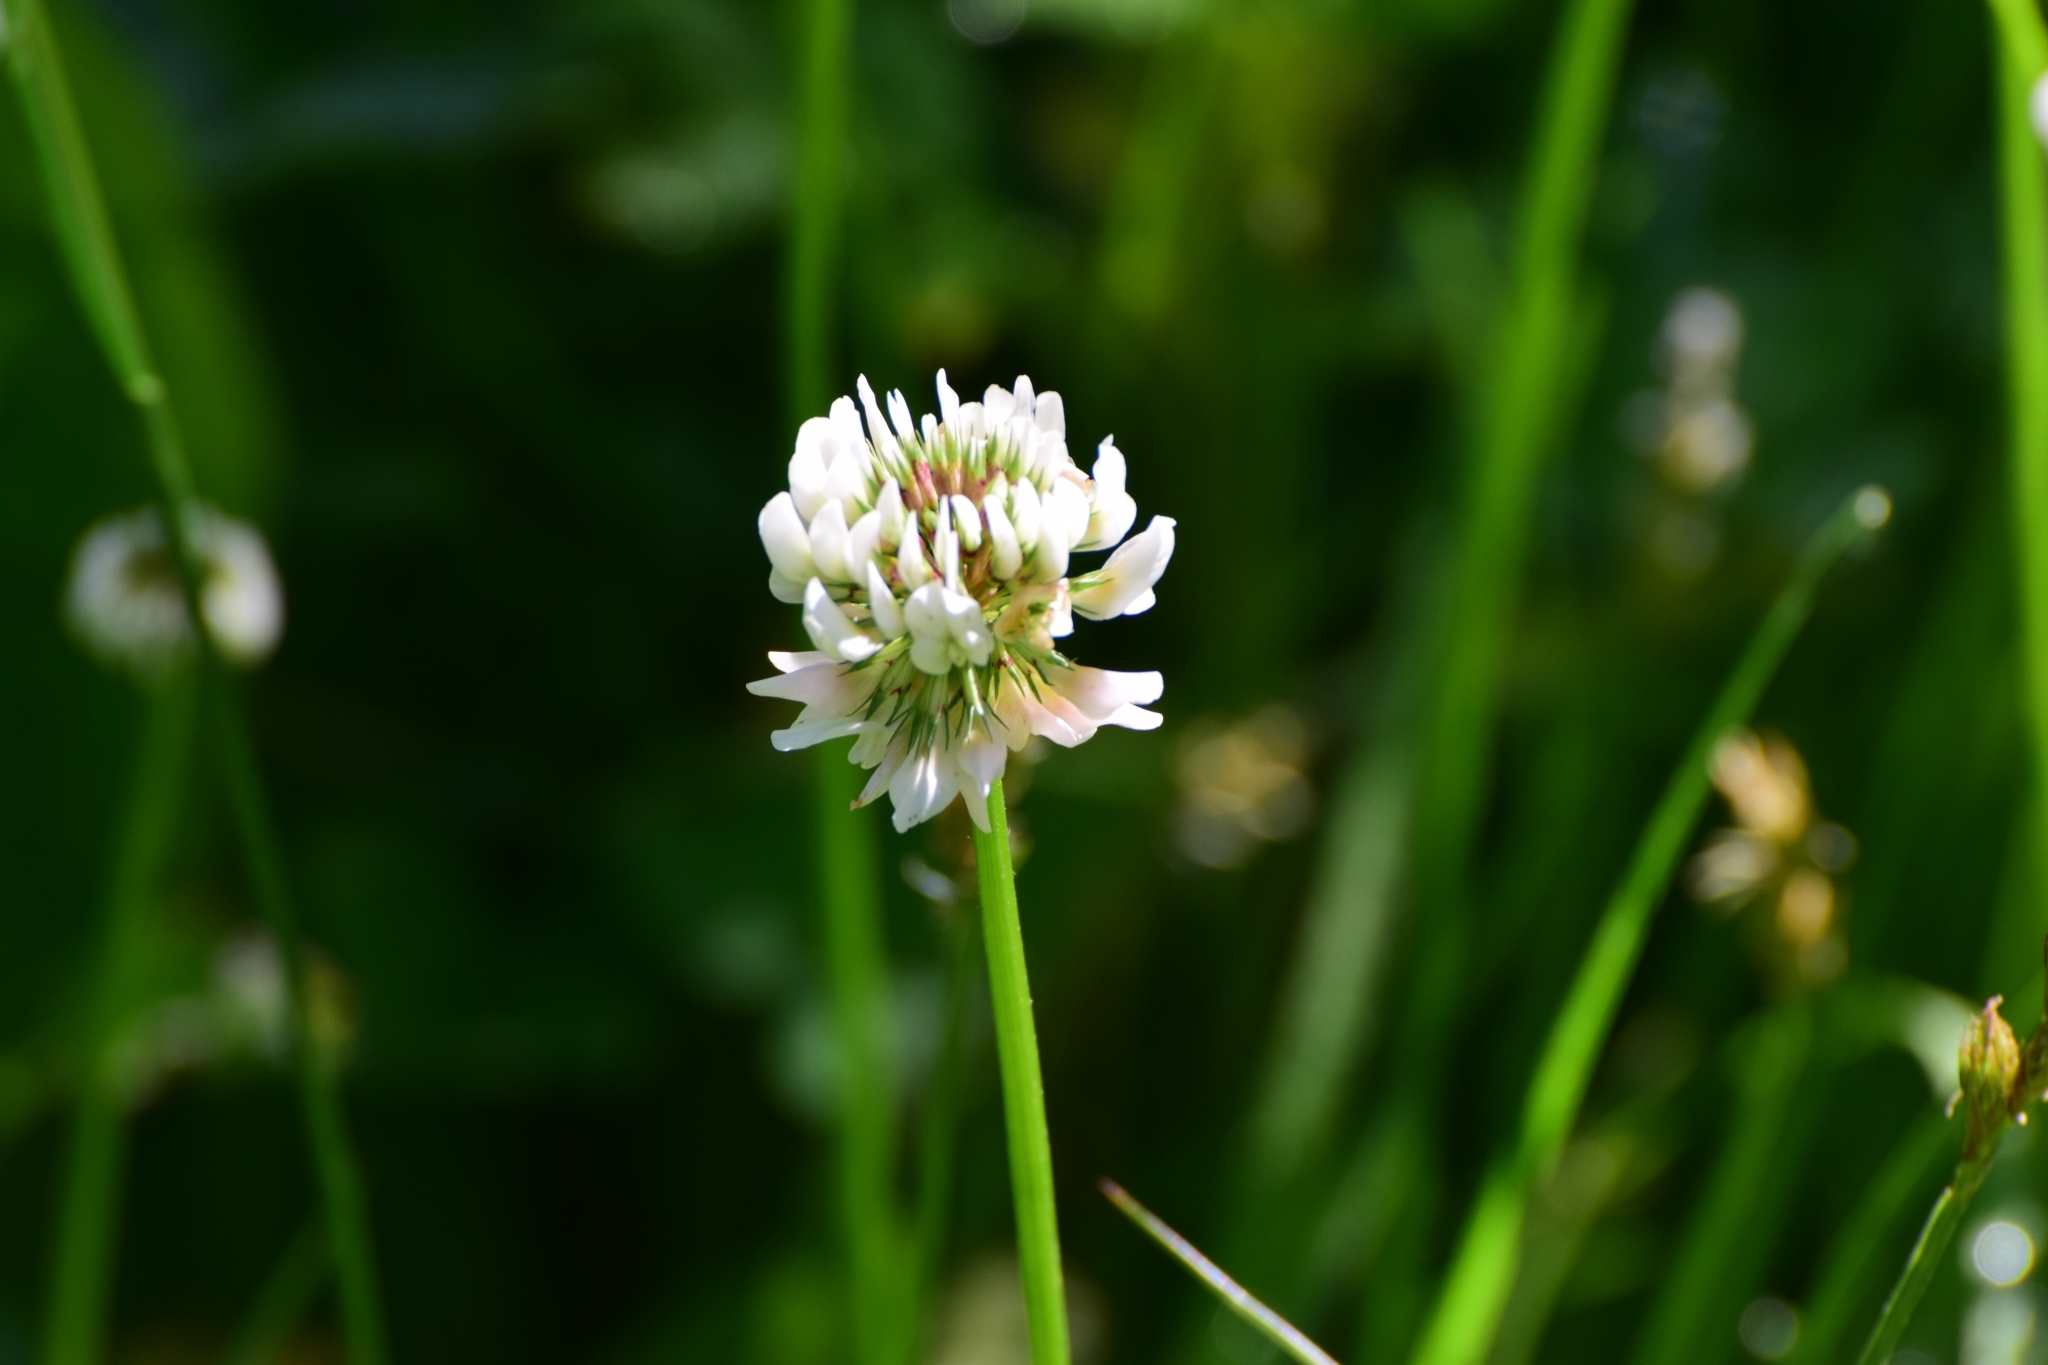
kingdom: Plantae
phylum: Tracheophyta
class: Magnoliopsida
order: Fabales
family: Fabaceae
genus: Trifolium
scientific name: Trifolium repens
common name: White clover
